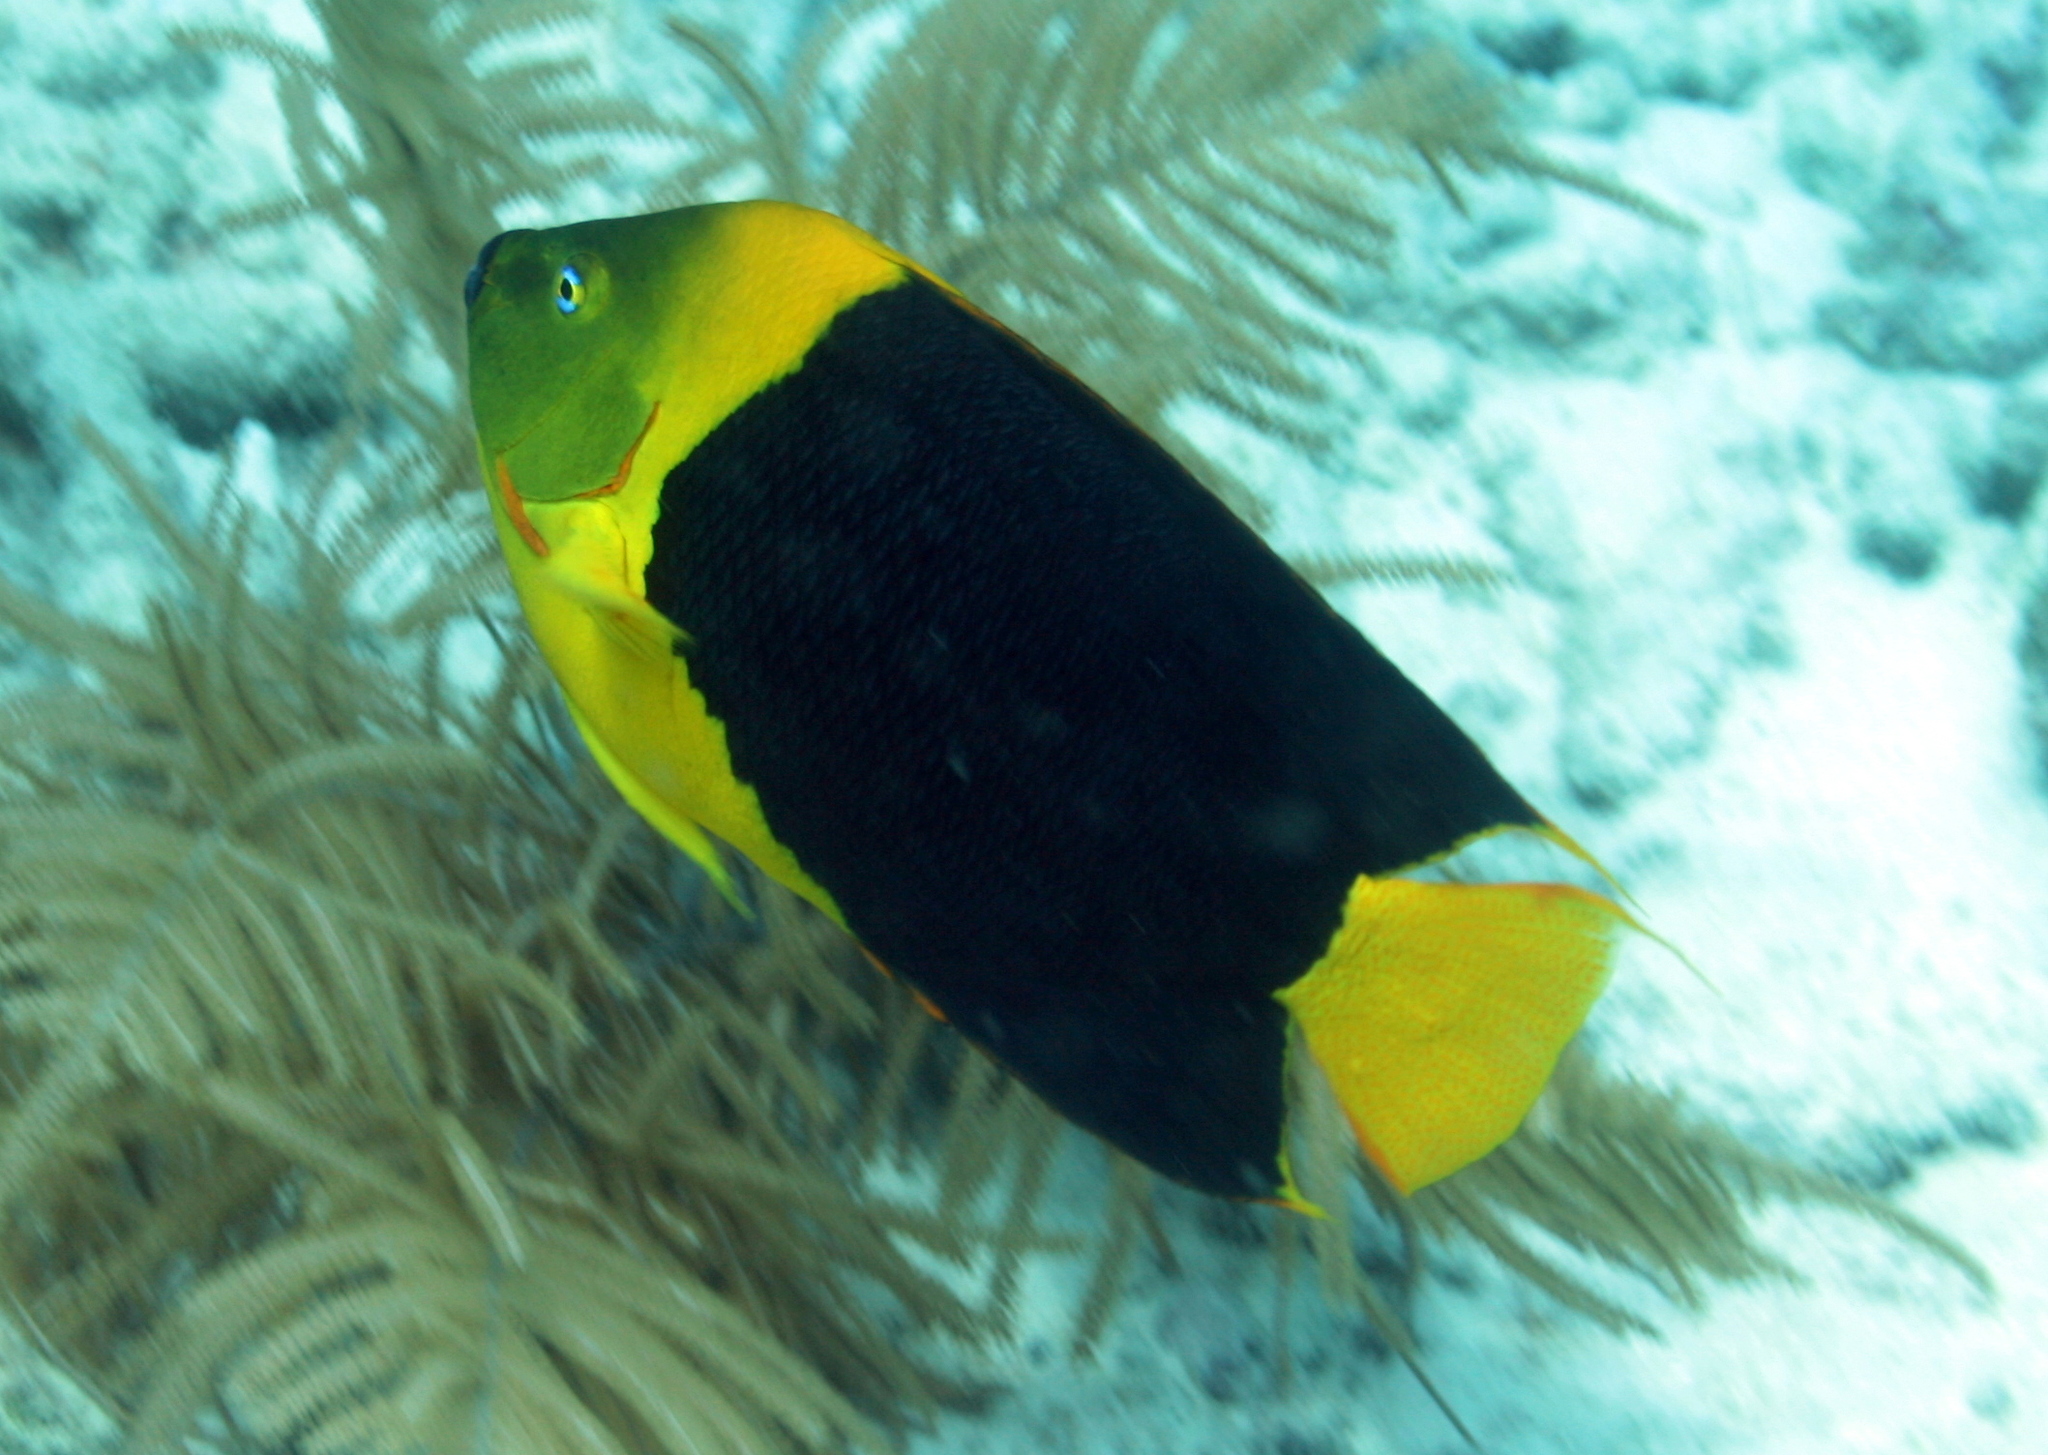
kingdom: Animalia
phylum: Chordata
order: Perciformes
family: Pomacanthidae
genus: Holacanthus
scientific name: Holacanthus tricolor
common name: Rock beauty
